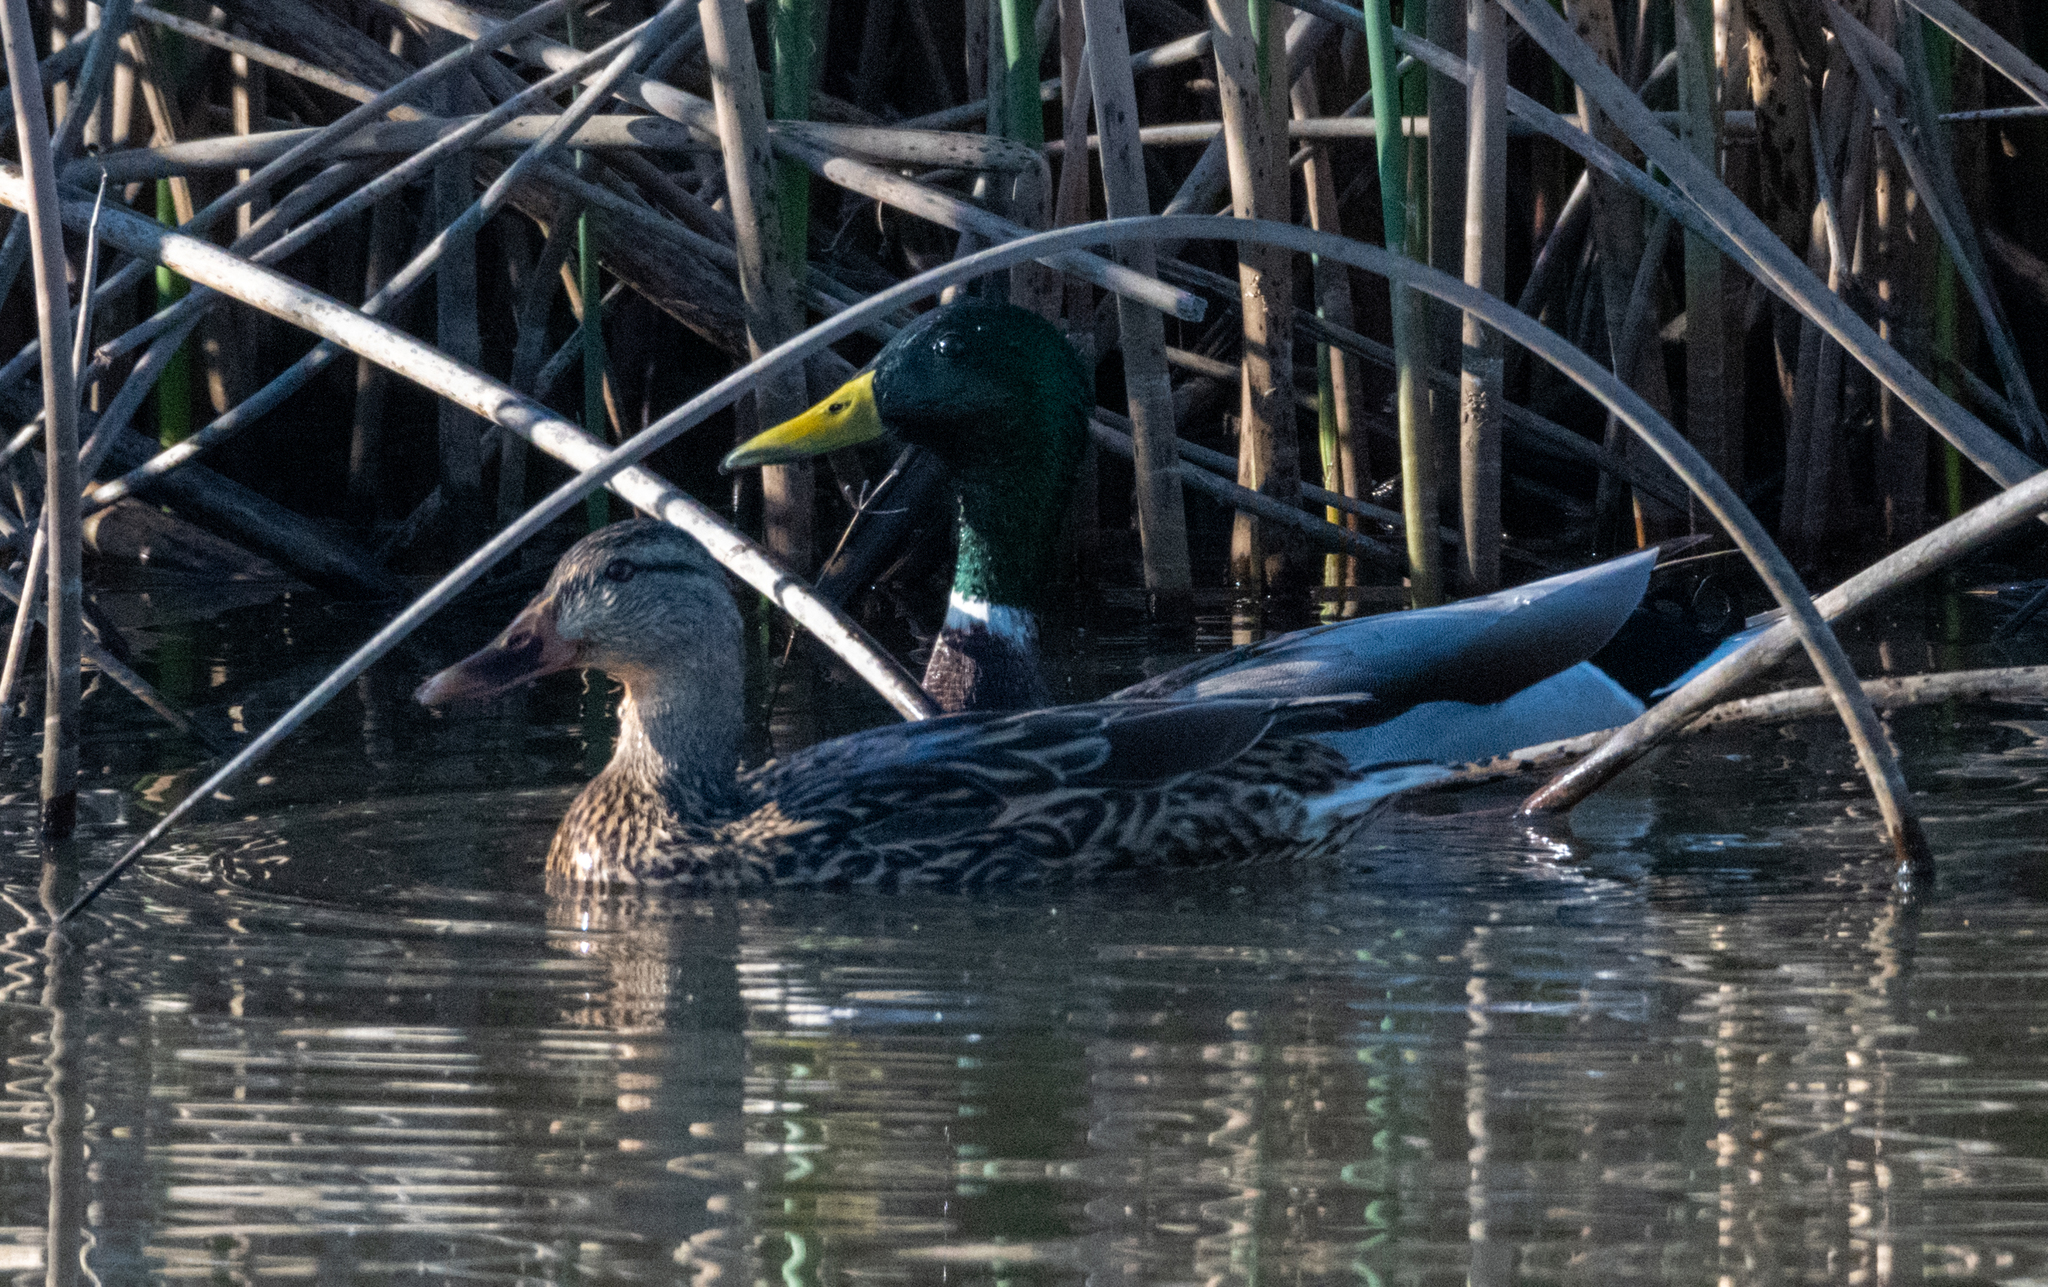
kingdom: Animalia
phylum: Chordata
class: Aves
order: Anseriformes
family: Anatidae
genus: Anas
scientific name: Anas platyrhynchos
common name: Mallard
